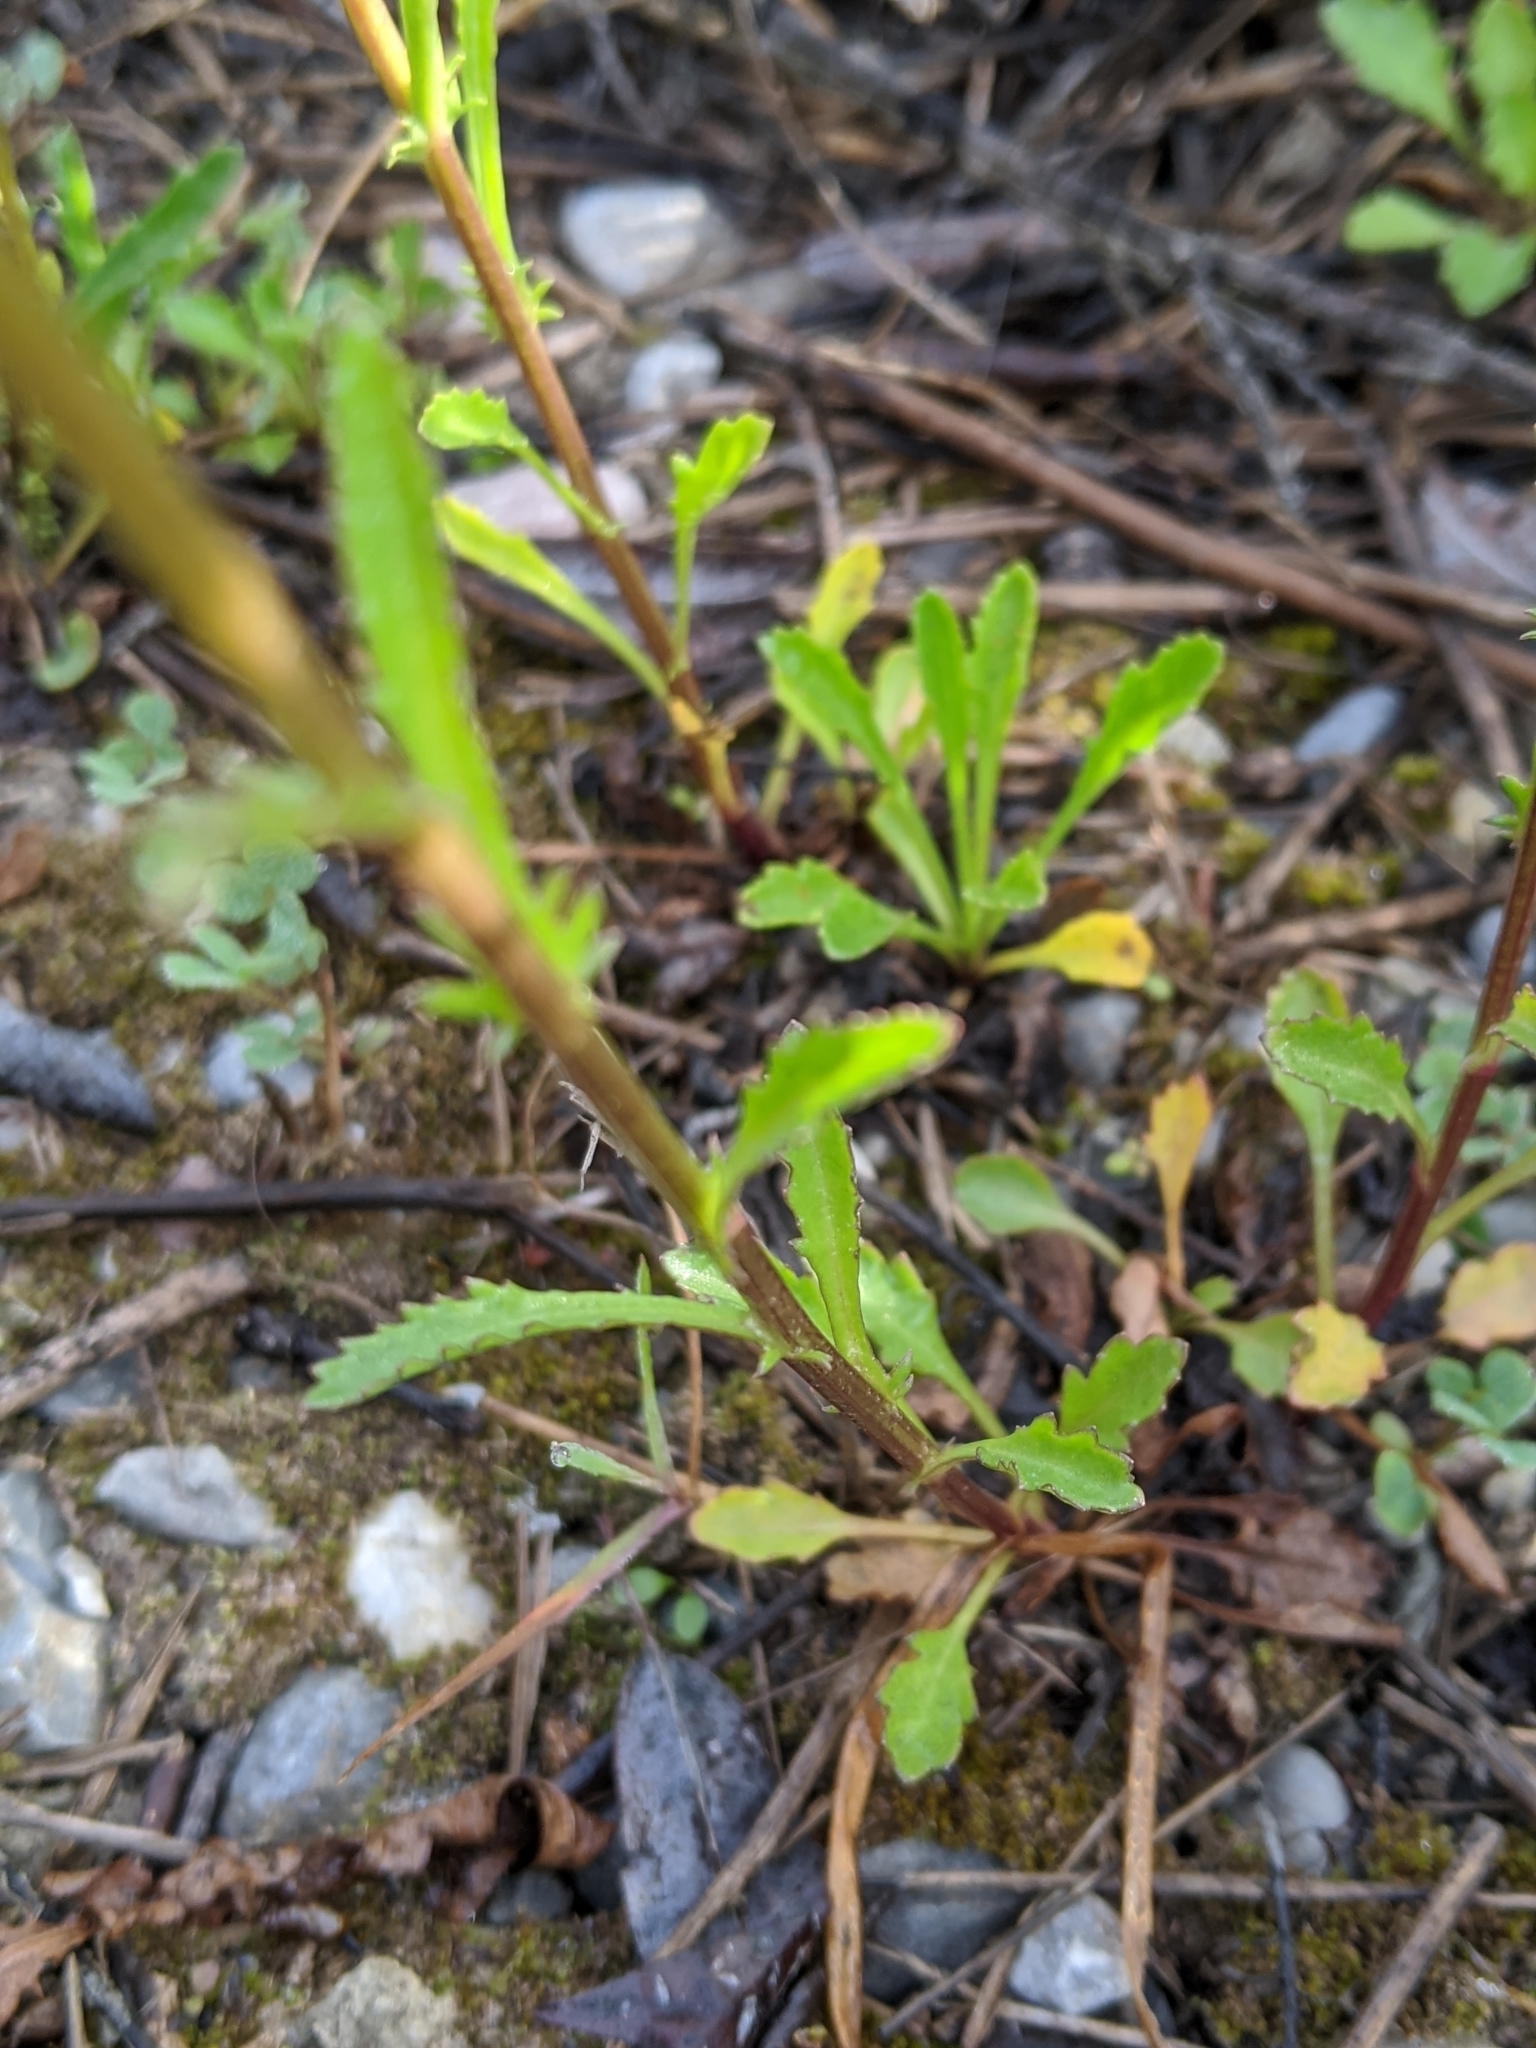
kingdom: Plantae
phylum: Tracheophyta
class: Magnoliopsida
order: Asterales
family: Asteraceae
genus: Leucanthemum
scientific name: Leucanthemum vulgare
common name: Oxeye daisy
